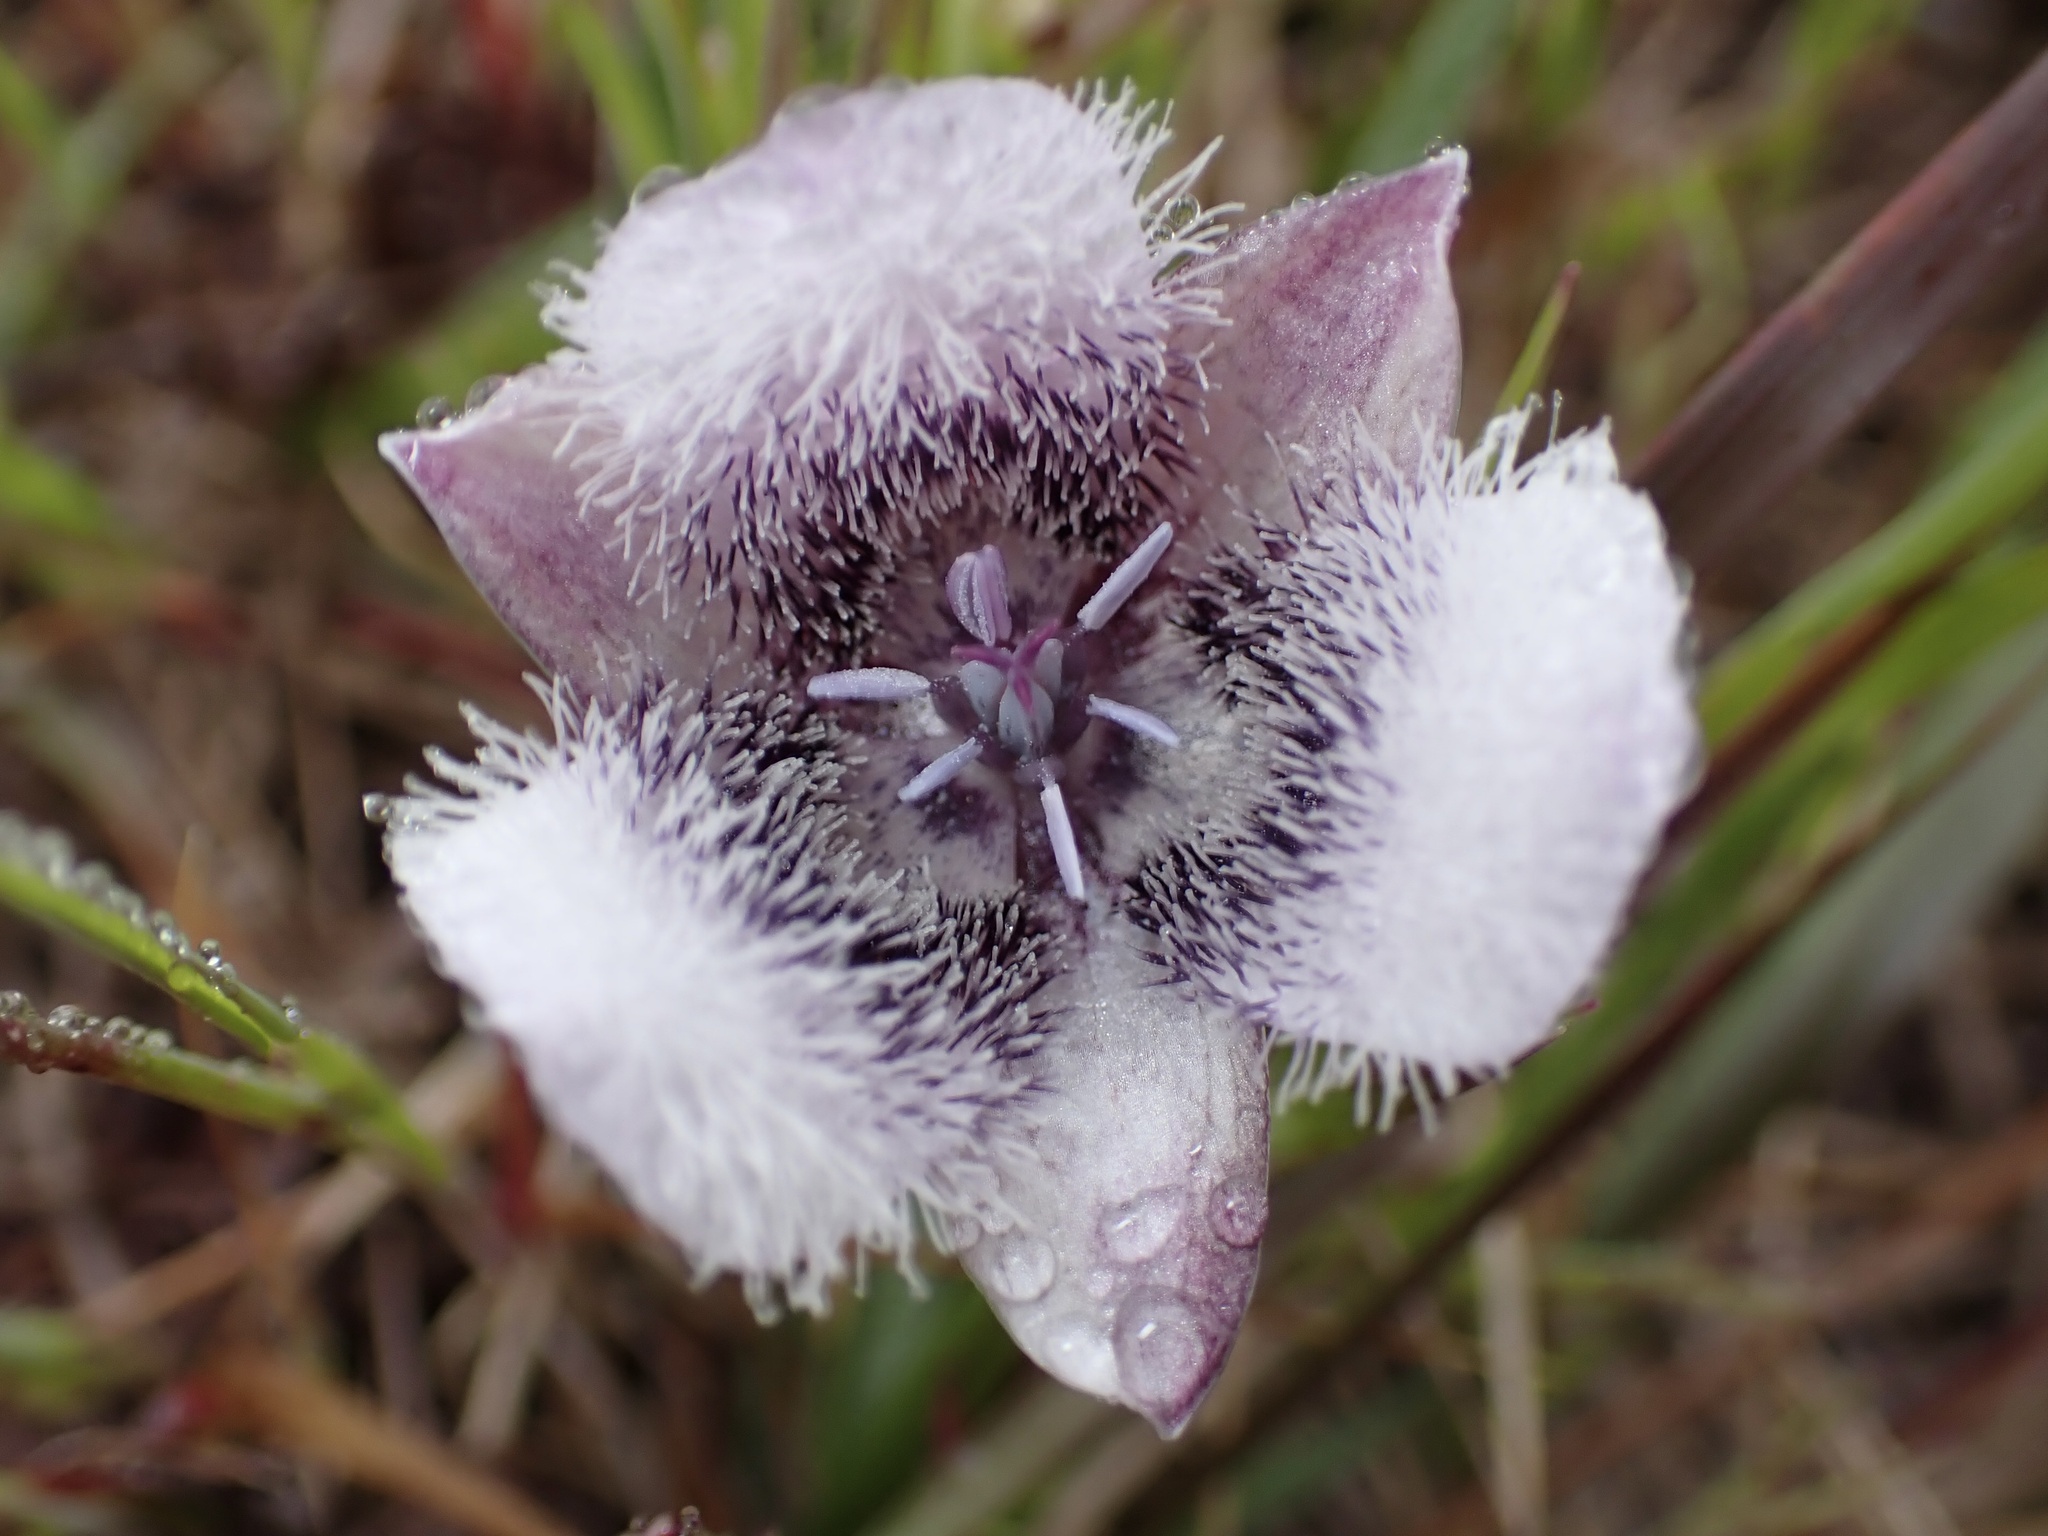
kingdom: Plantae
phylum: Tracheophyta
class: Liliopsida
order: Liliales
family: Liliaceae
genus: Calochortus
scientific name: Calochortus tolmiei
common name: Pussy-ears
